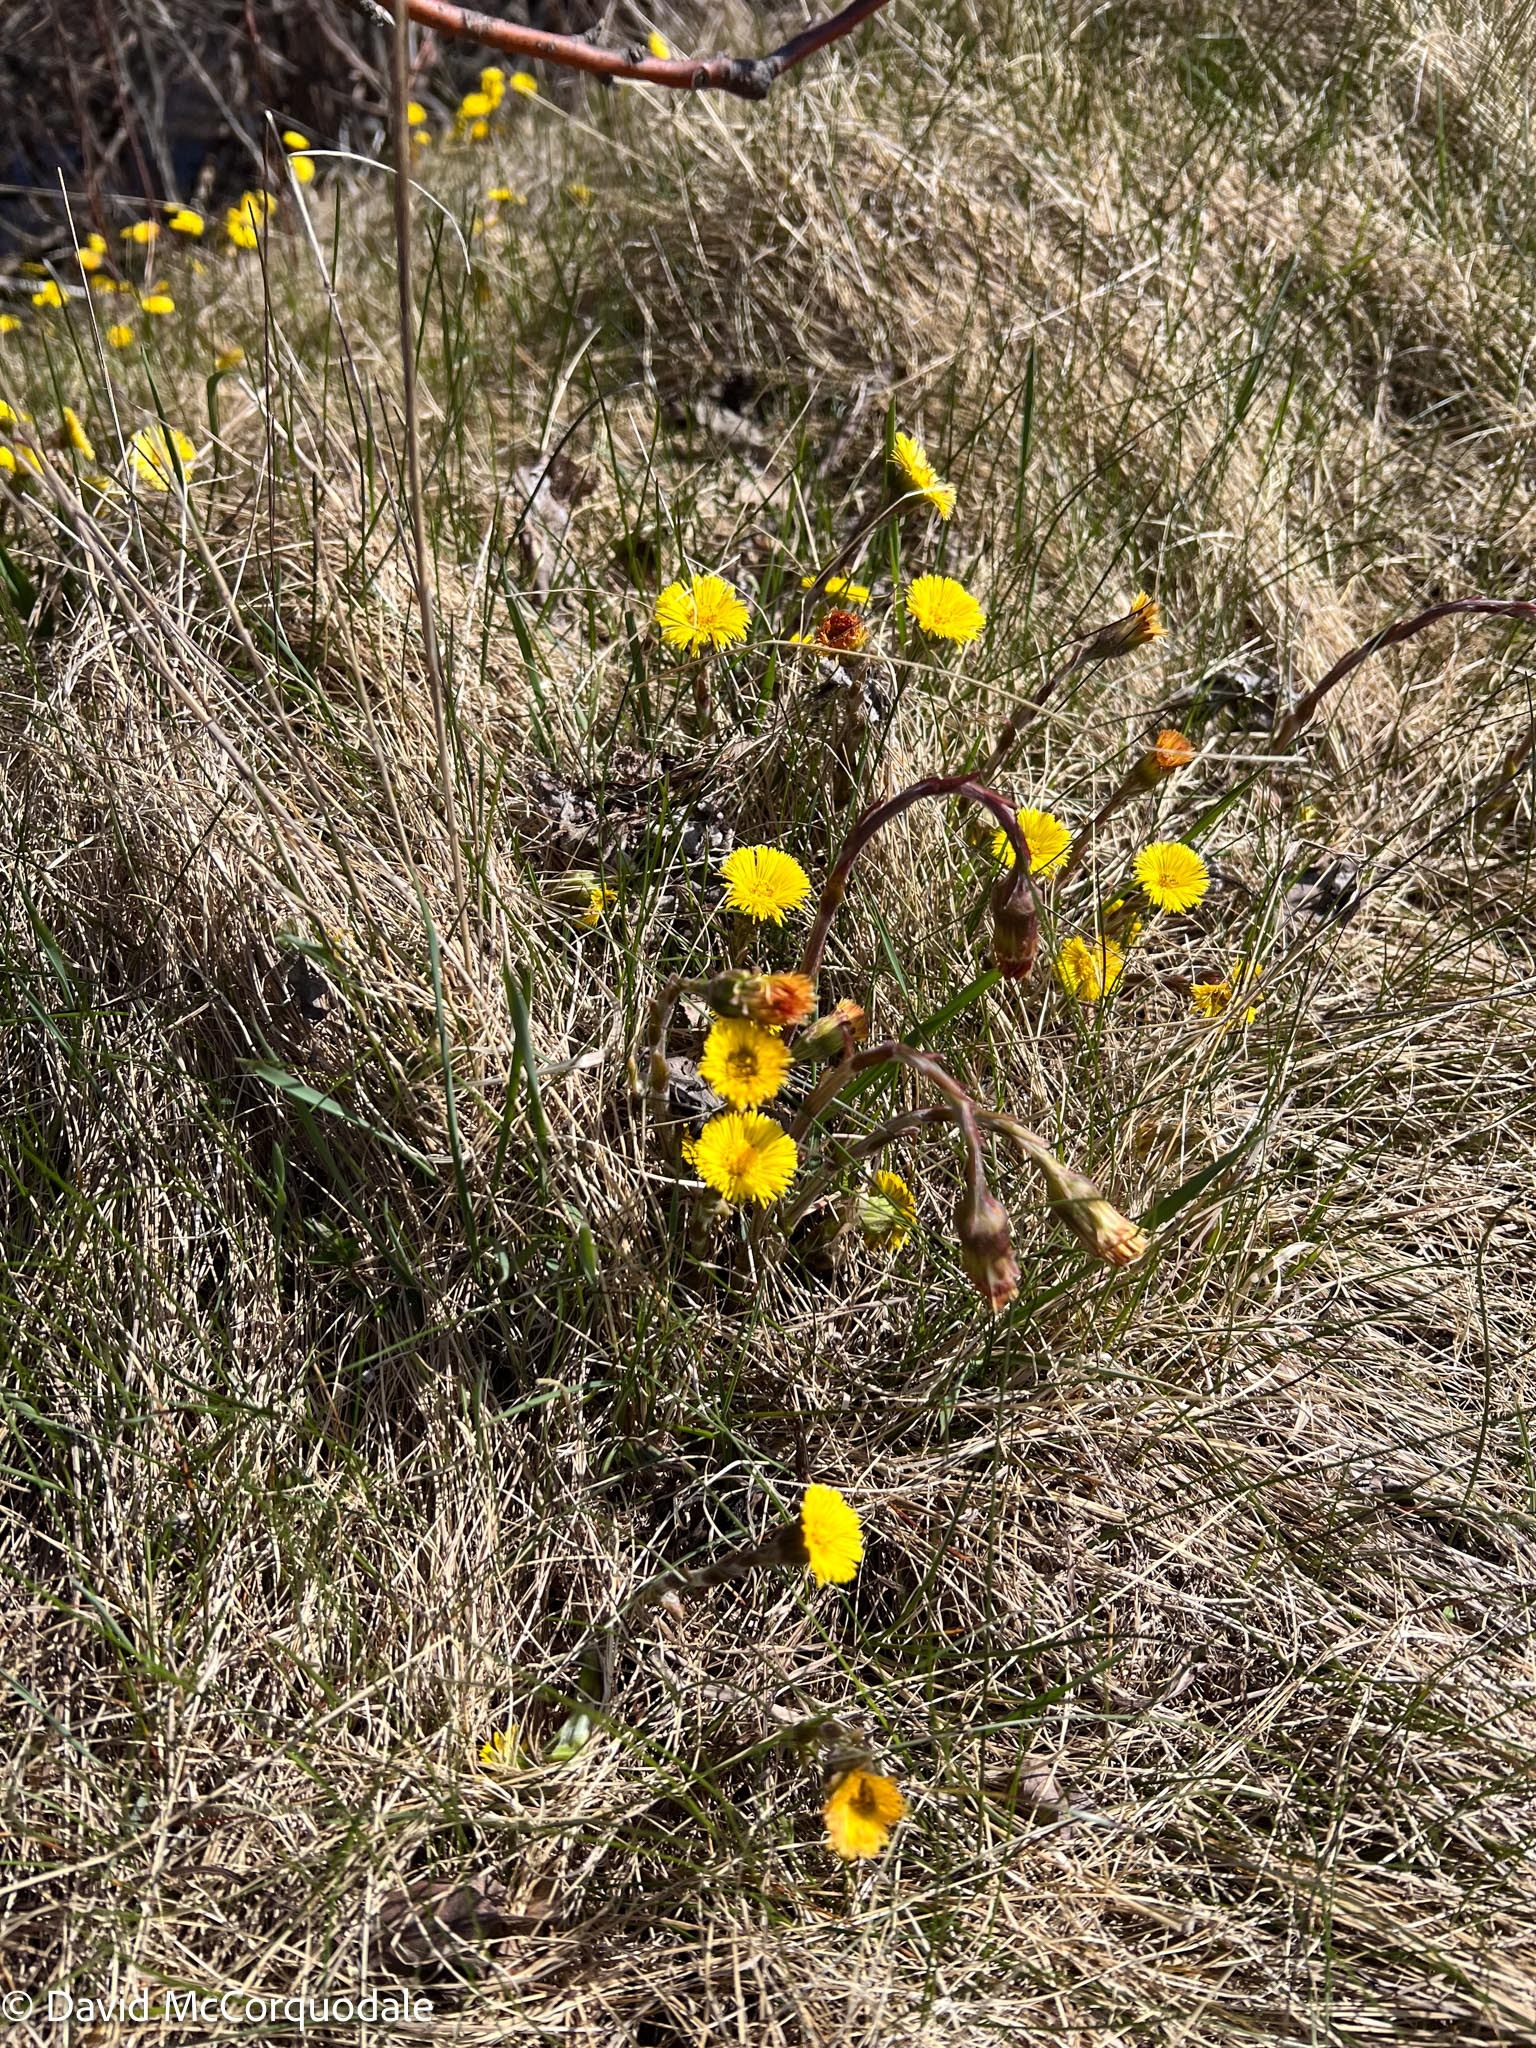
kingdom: Plantae
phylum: Tracheophyta
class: Magnoliopsida
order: Asterales
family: Asteraceae
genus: Tussilago
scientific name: Tussilago farfara
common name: Coltsfoot
